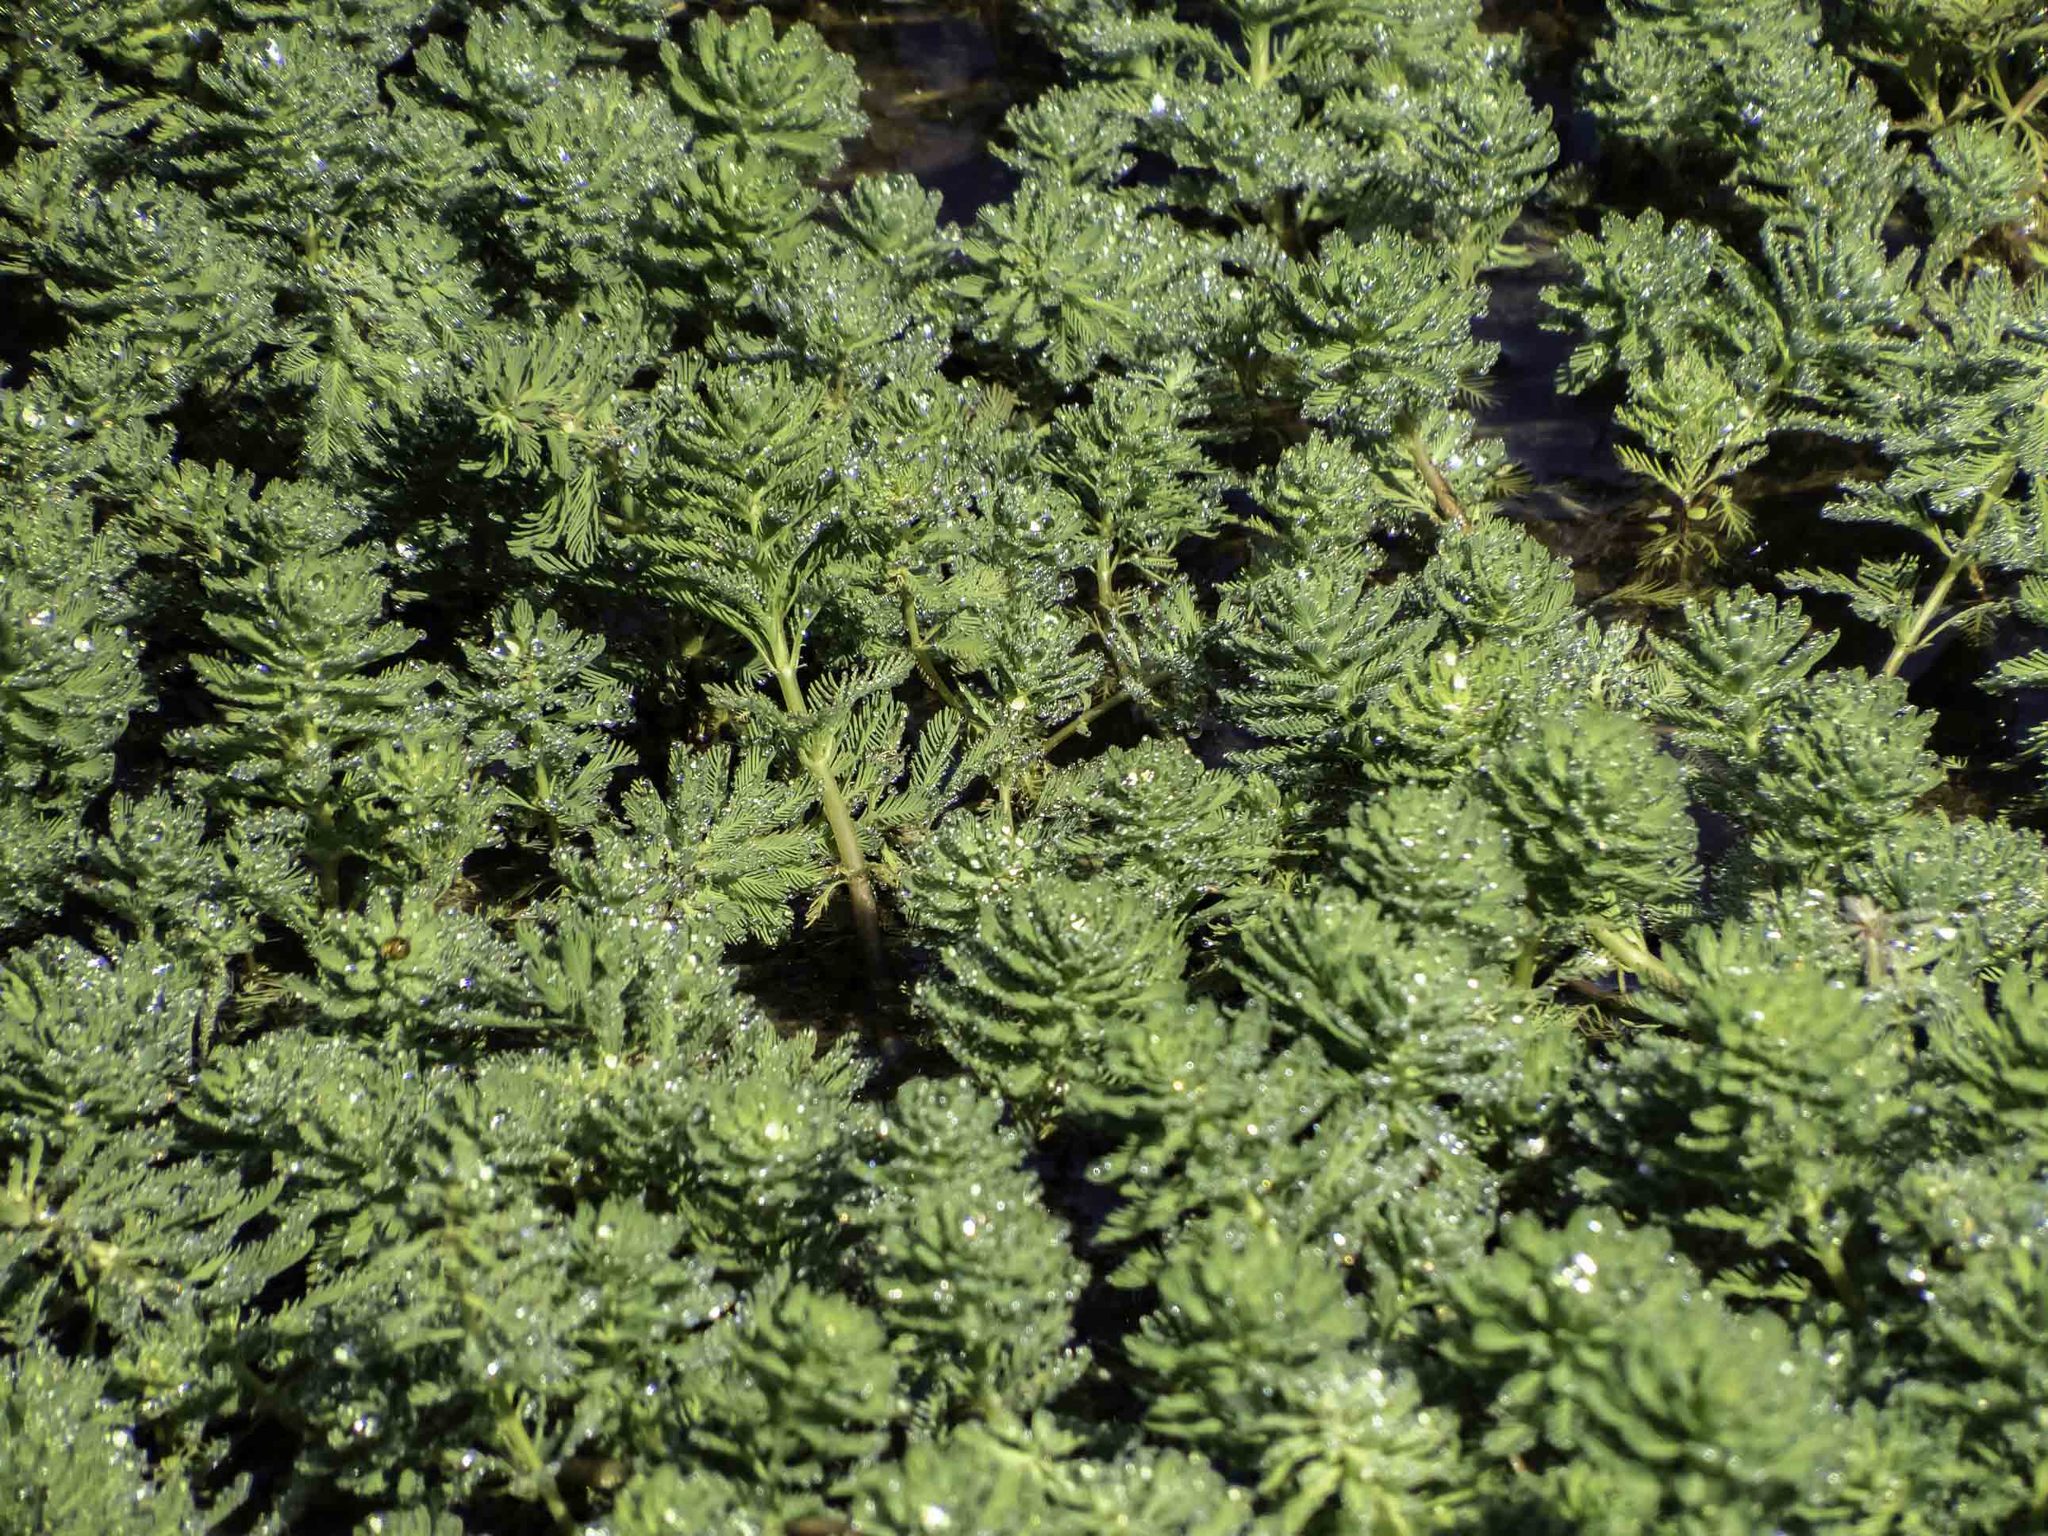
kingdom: Plantae
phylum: Tracheophyta
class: Magnoliopsida
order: Saxifragales
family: Haloragaceae
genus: Myriophyllum
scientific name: Myriophyllum aquaticum
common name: Parrot's feather
